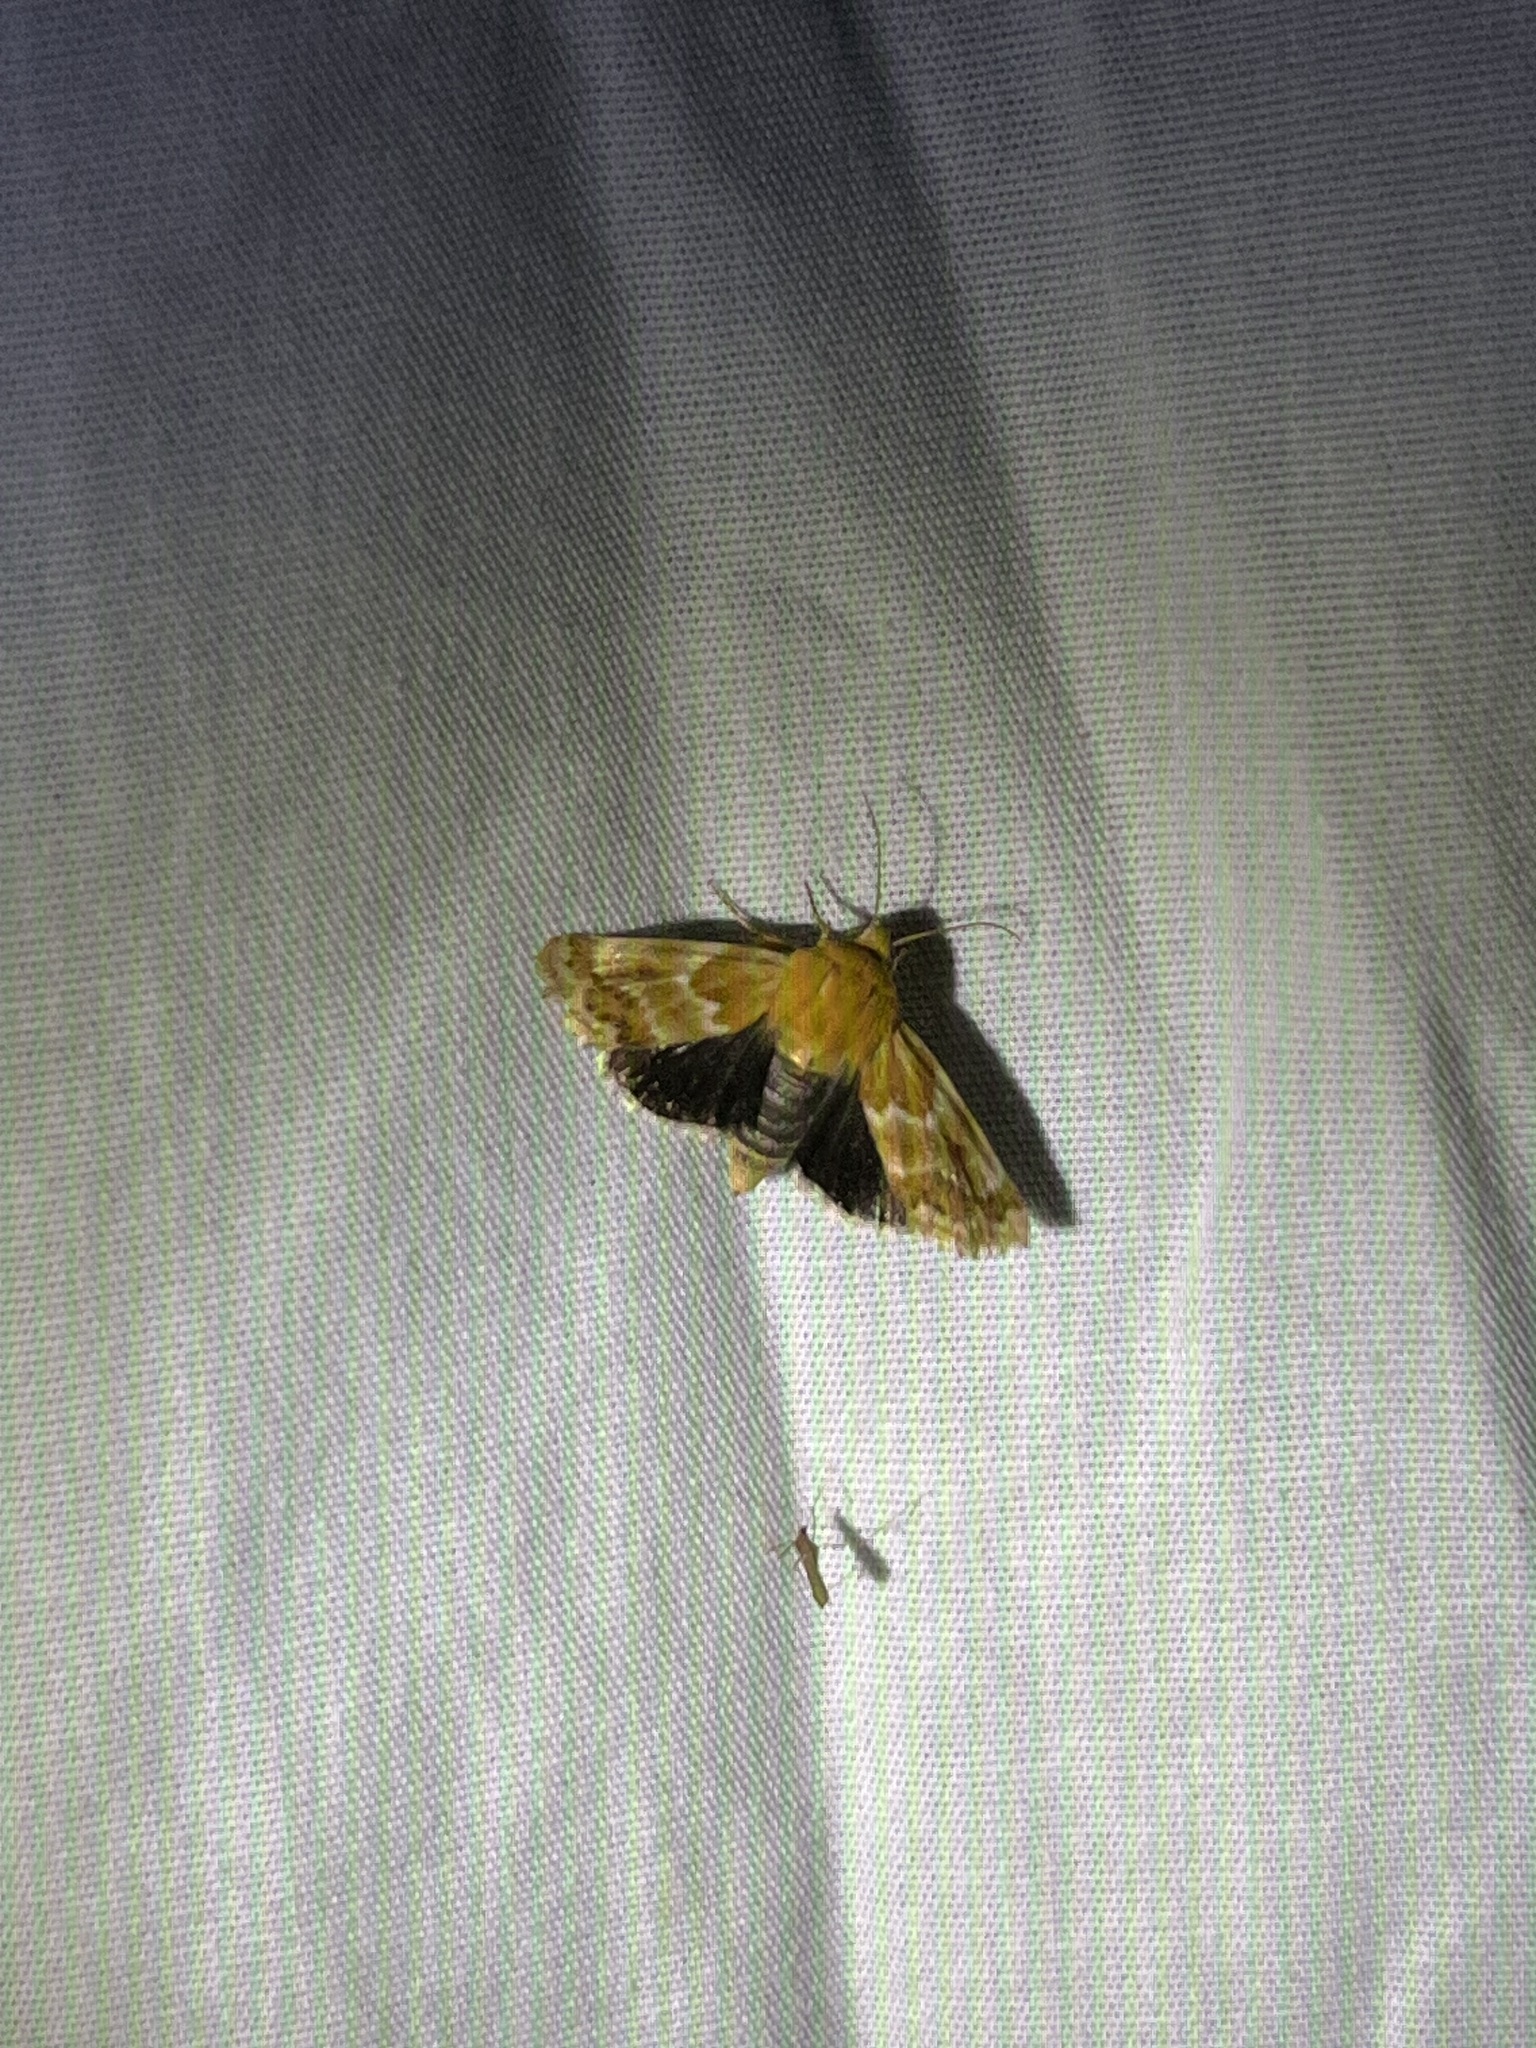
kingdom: Animalia
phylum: Arthropoda
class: Insecta
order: Lepidoptera
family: Noctuidae
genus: Schinia
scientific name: Schinia siren
